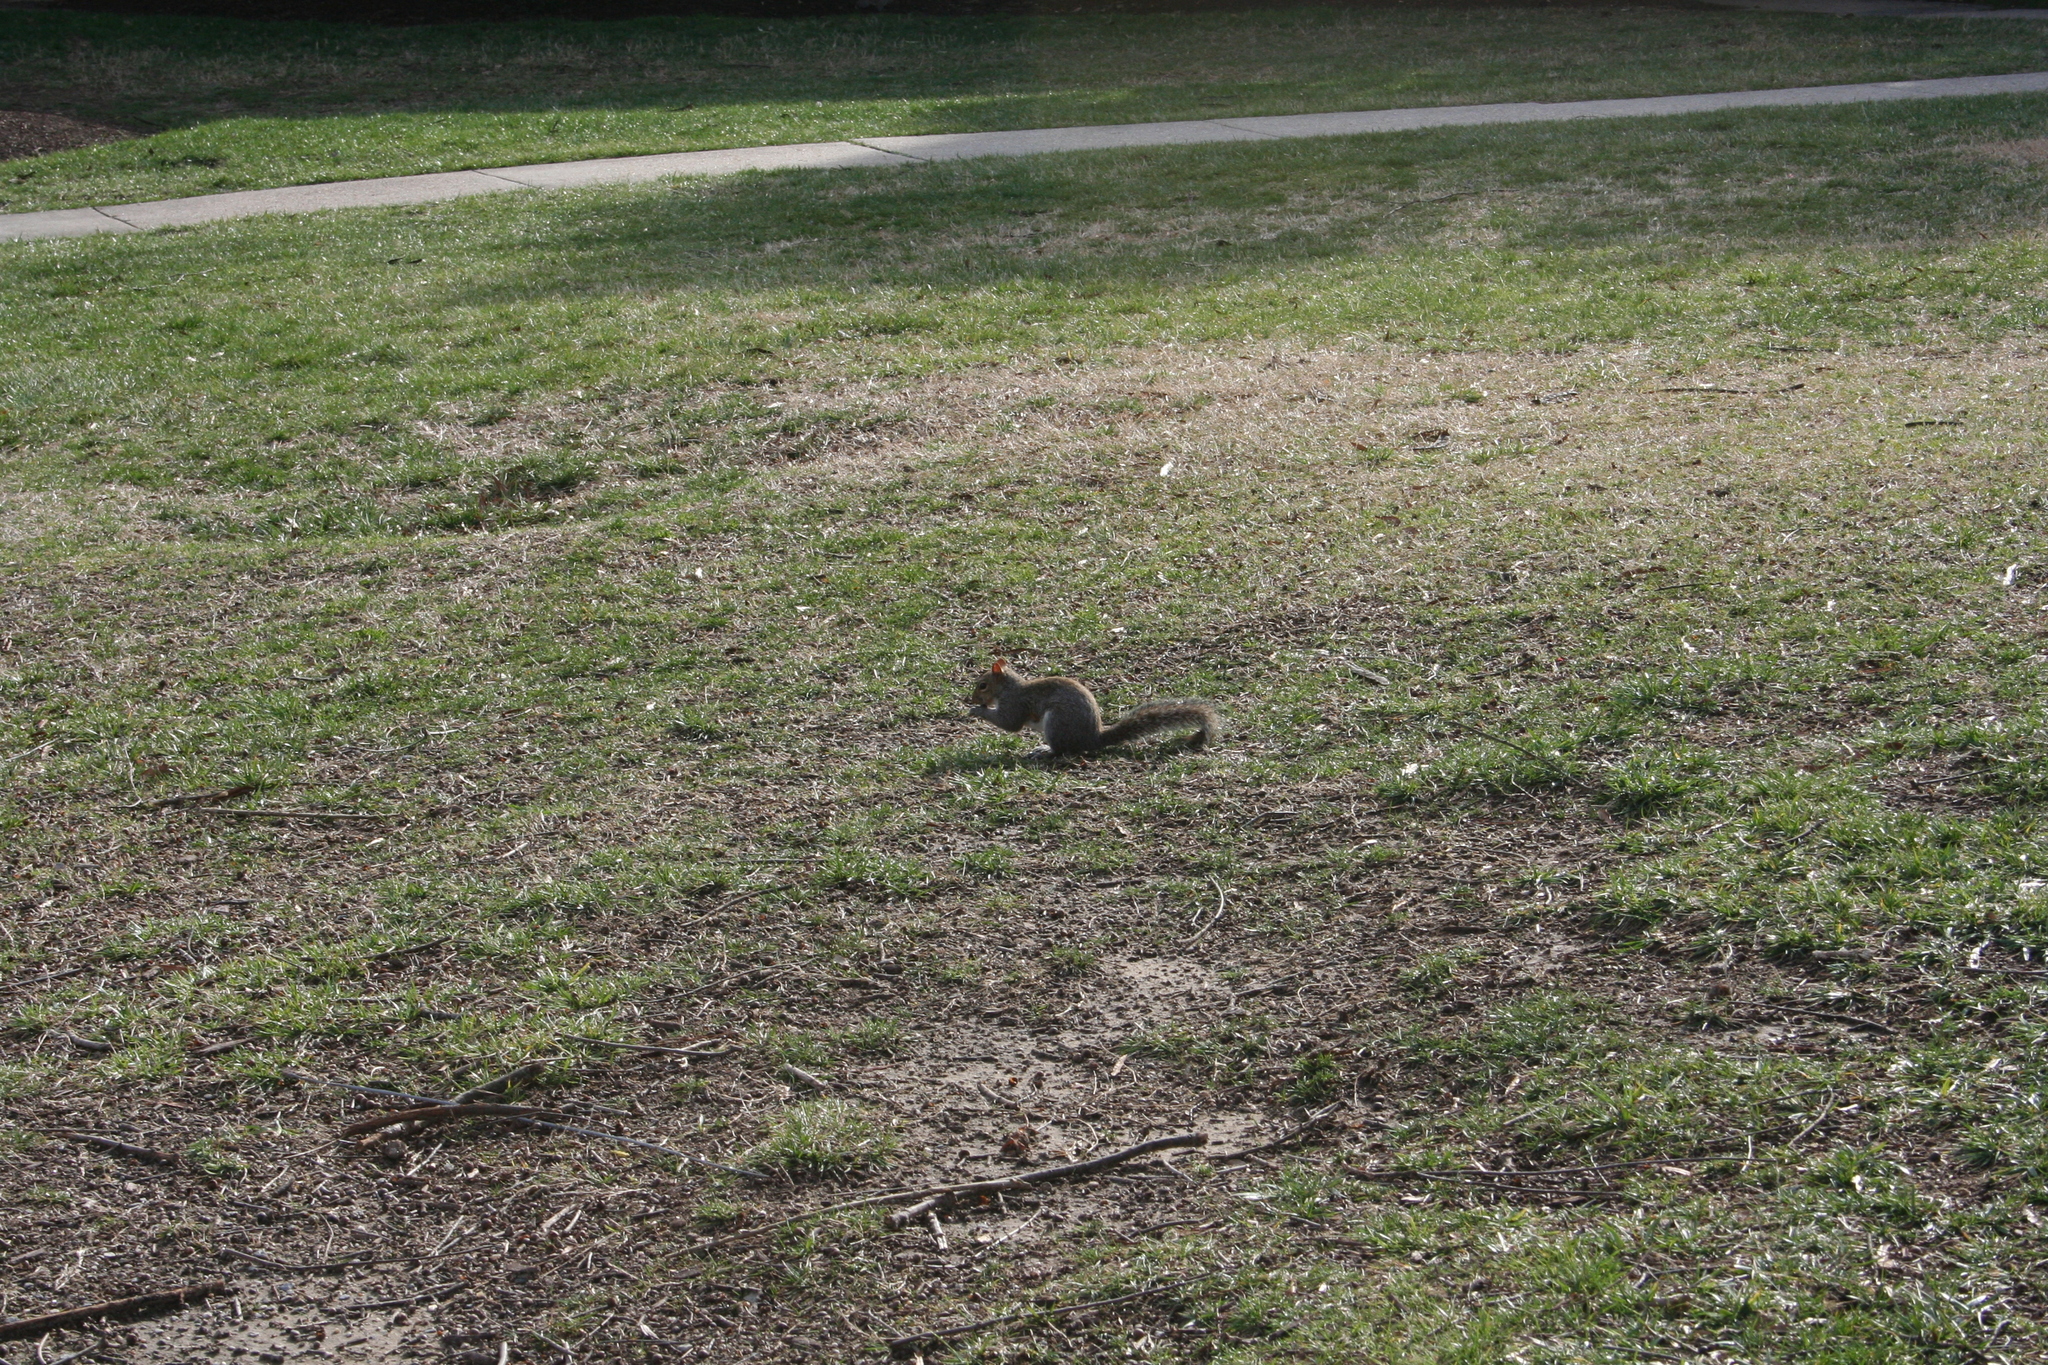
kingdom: Animalia
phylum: Chordata
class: Mammalia
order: Rodentia
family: Sciuridae
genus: Sciurus
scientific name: Sciurus carolinensis
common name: Eastern gray squirrel
